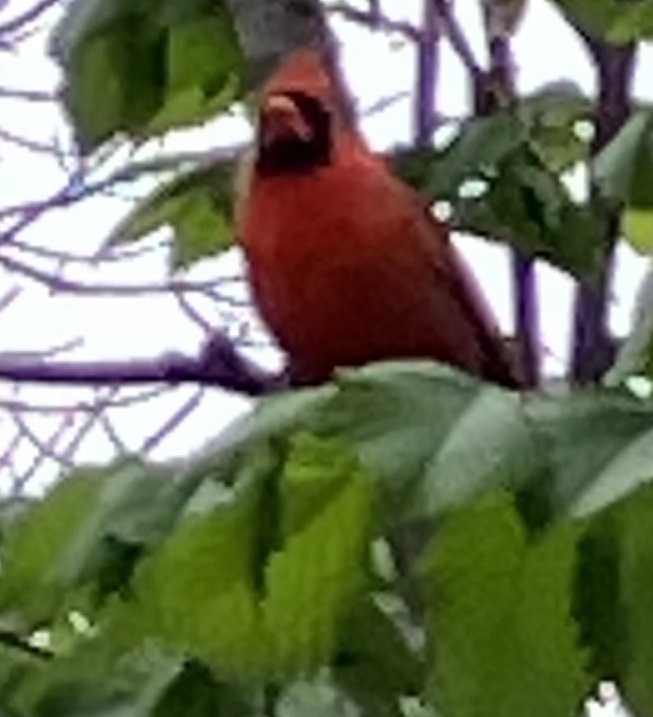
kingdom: Animalia
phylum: Chordata
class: Aves
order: Passeriformes
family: Cardinalidae
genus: Cardinalis
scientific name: Cardinalis cardinalis
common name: Northern cardinal
